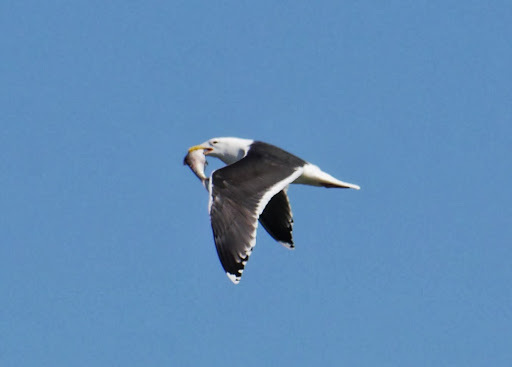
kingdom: Animalia
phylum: Chordata
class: Aves
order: Charadriiformes
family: Laridae
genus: Larus
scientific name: Larus marinus
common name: Great black-backed gull
